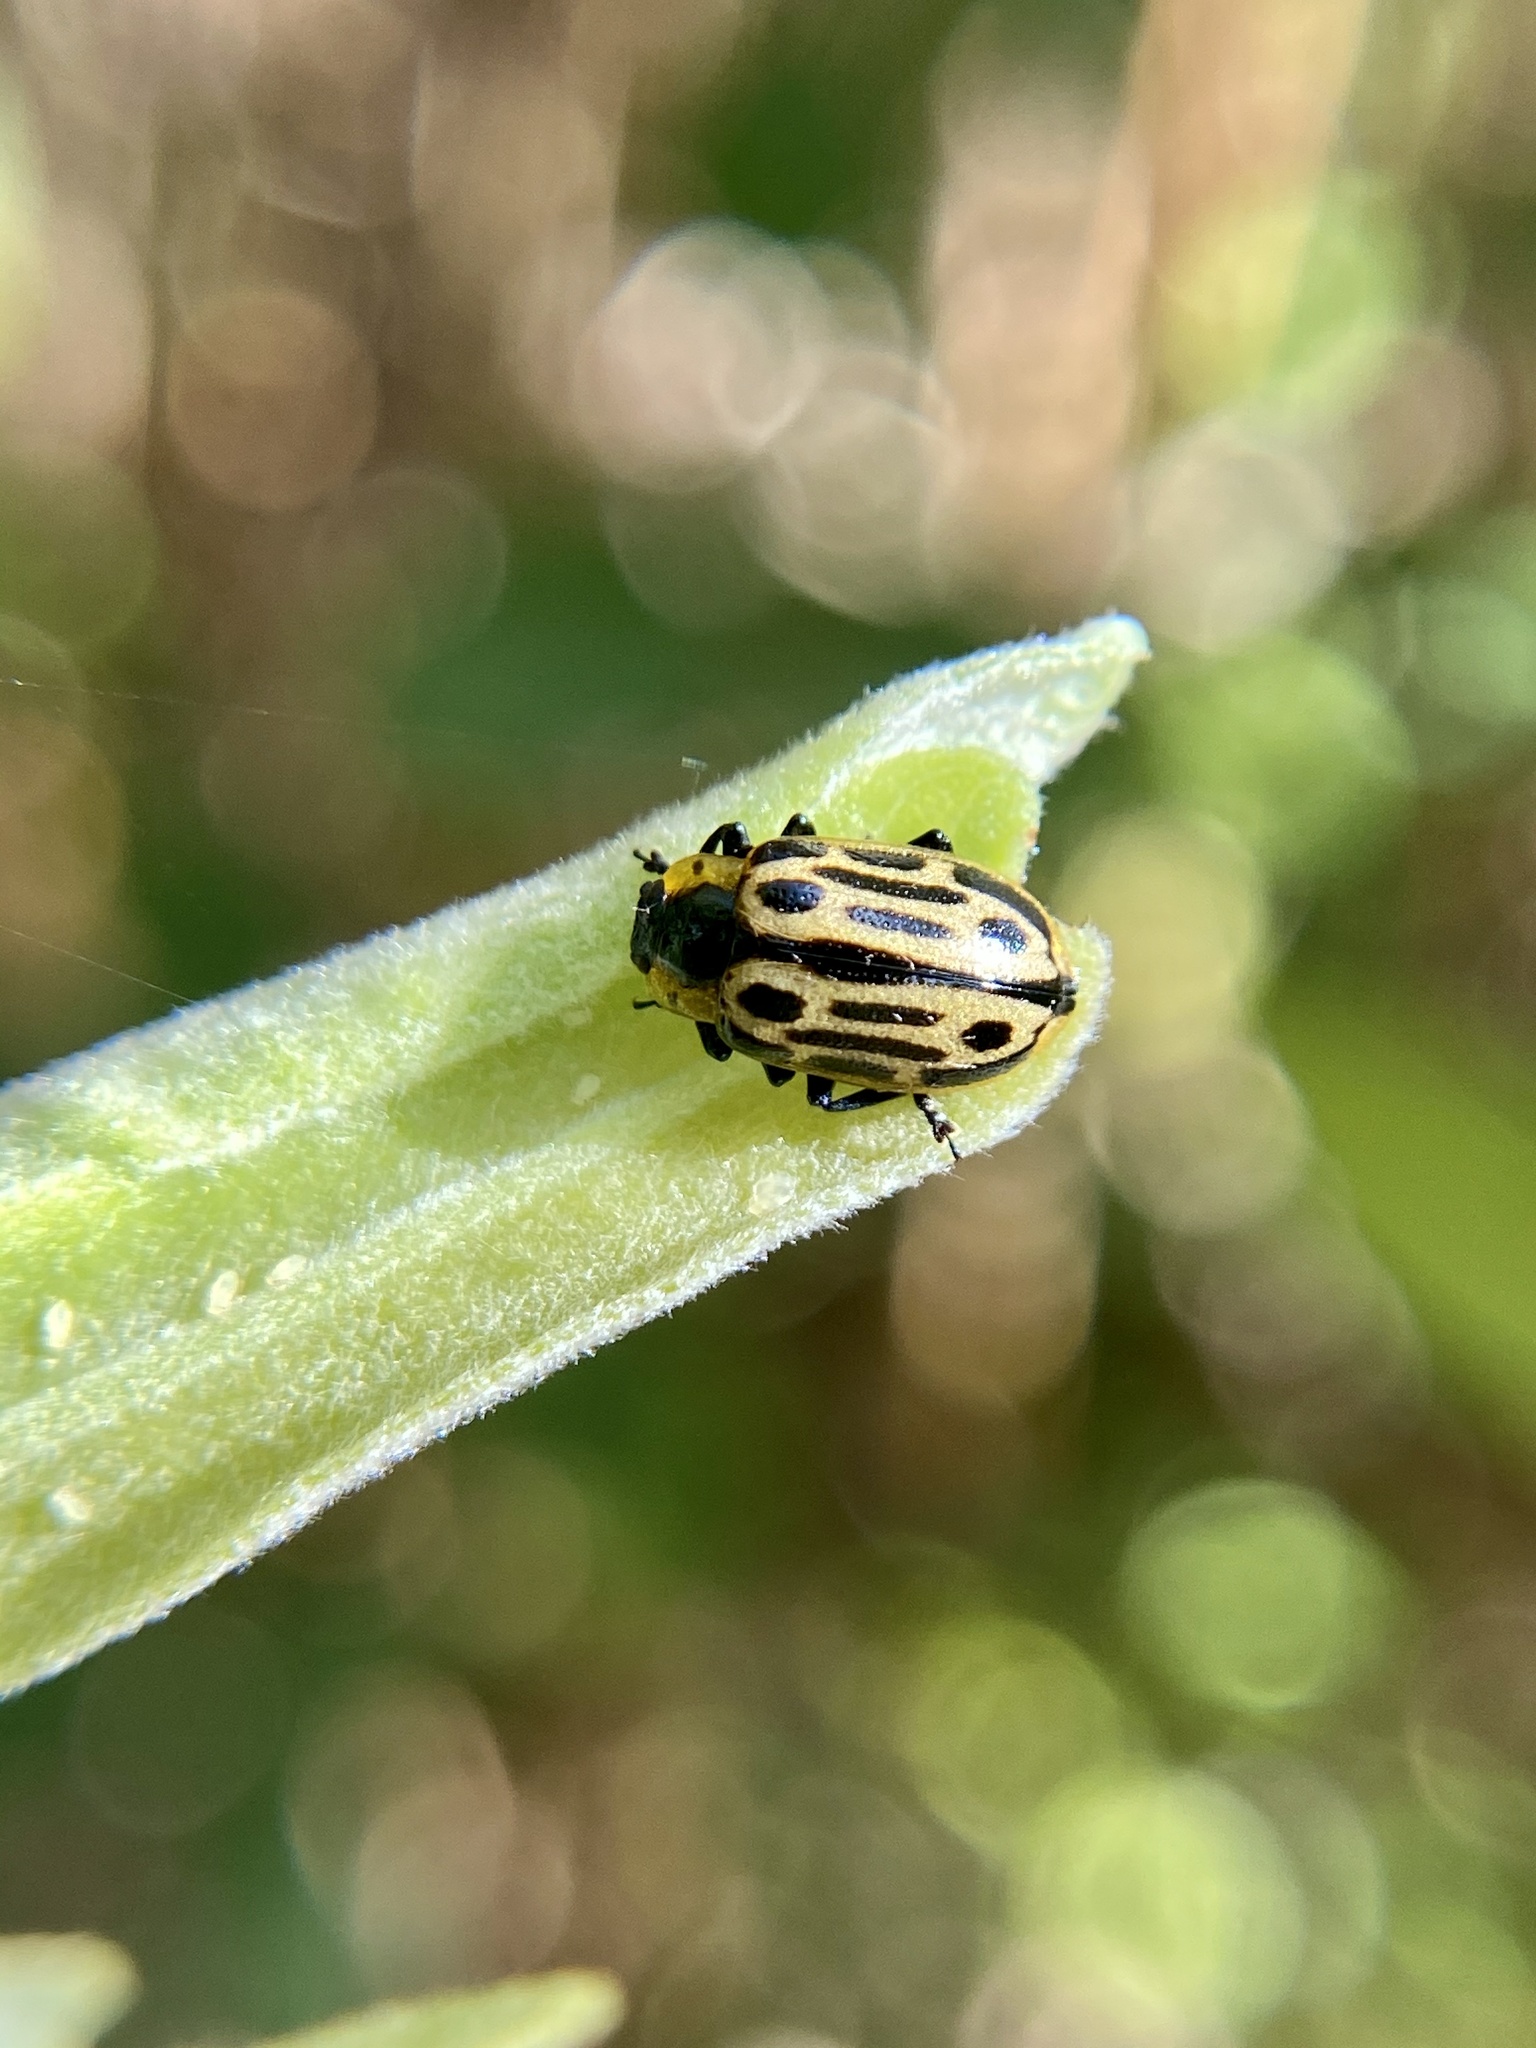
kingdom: Animalia
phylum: Arthropoda
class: Insecta
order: Coleoptera
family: Chrysomelidae
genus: Aethiopocassis
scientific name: Aethiopocassis scripta
